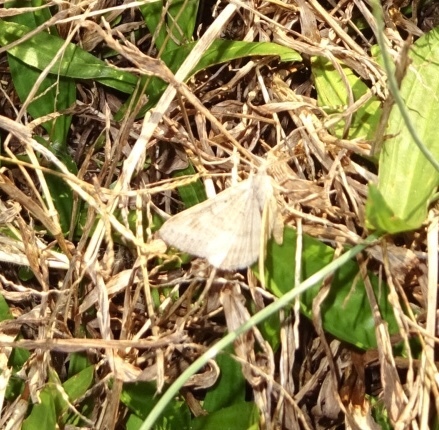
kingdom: Animalia
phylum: Arthropoda
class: Insecta
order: Lepidoptera
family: Erebidae
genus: Caenurgia
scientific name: Caenurgia chloropha
